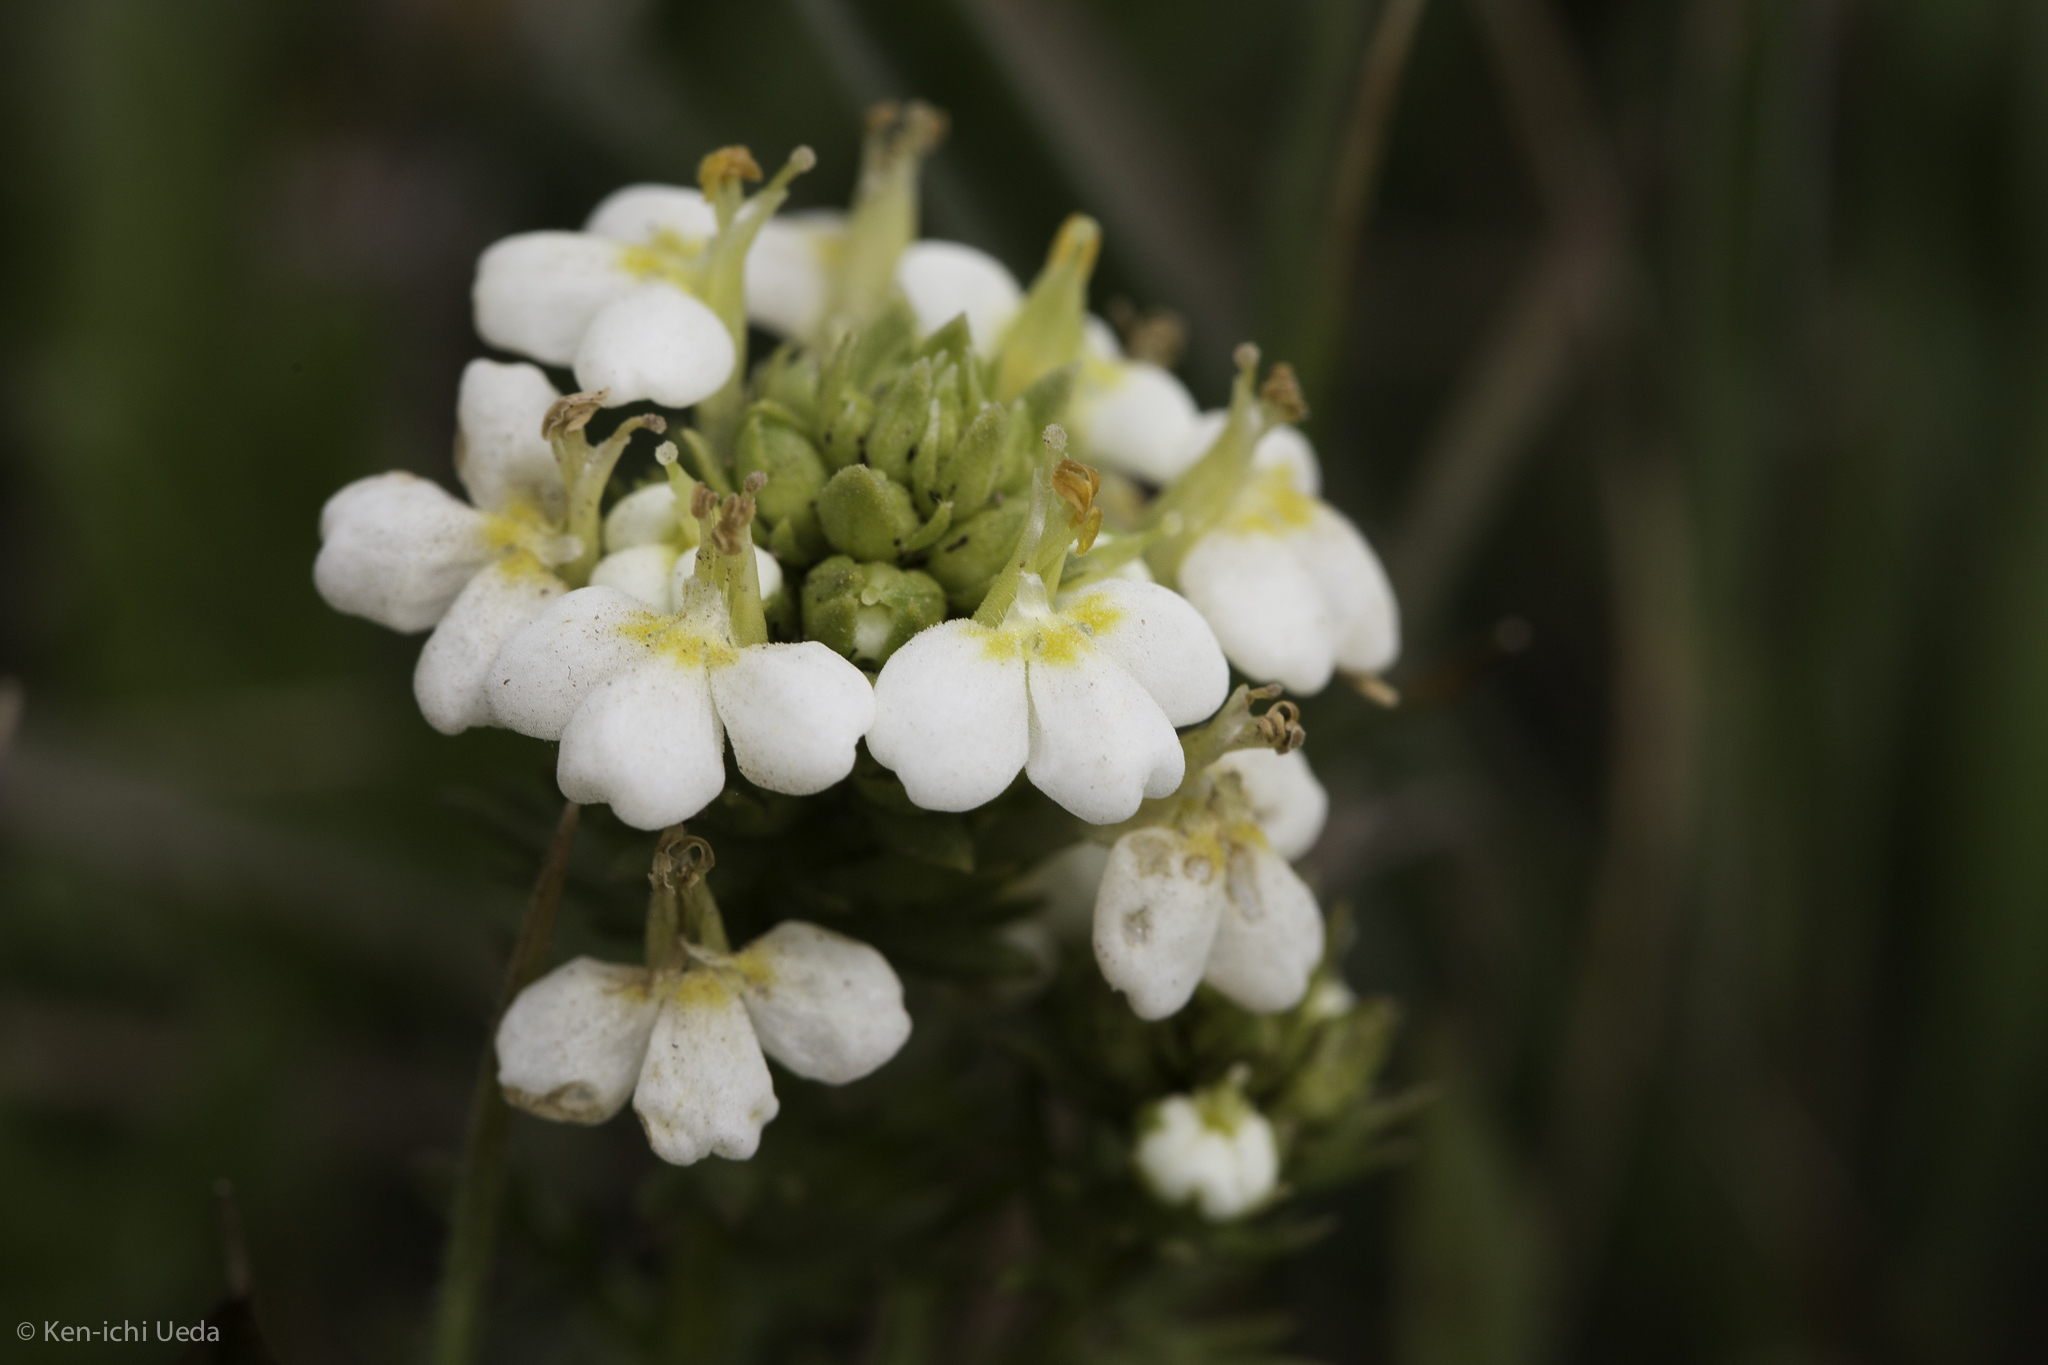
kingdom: Plantae
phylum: Tracheophyta
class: Magnoliopsida
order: Lamiales
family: Orobanchaceae
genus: Triphysaria
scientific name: Triphysaria floribunda
